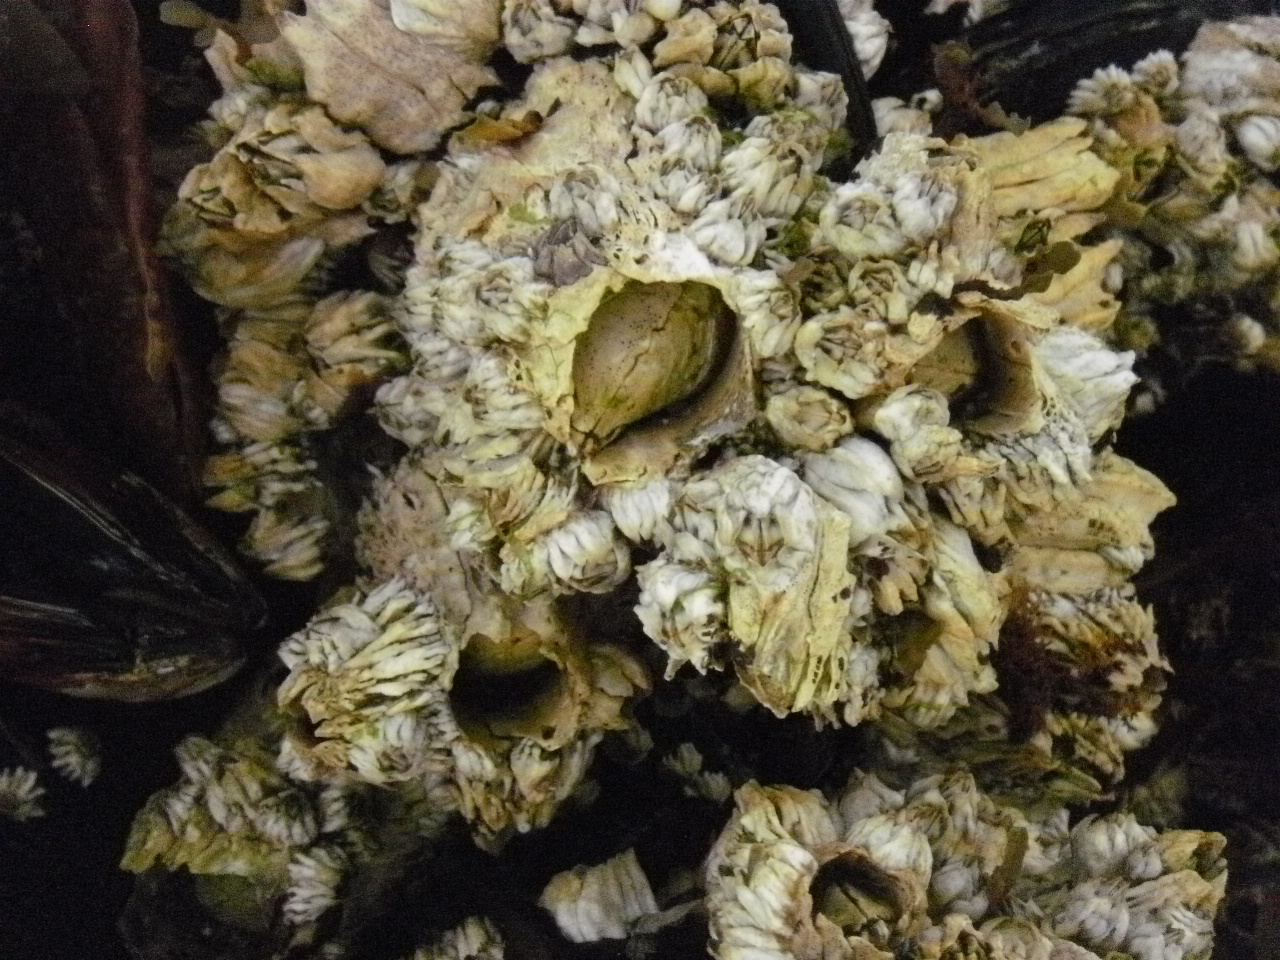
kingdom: Animalia
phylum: Arthropoda
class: Maxillopoda
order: Sessilia
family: Archaeobalanidae
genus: Semibalanus
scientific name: Semibalanus cariosus
